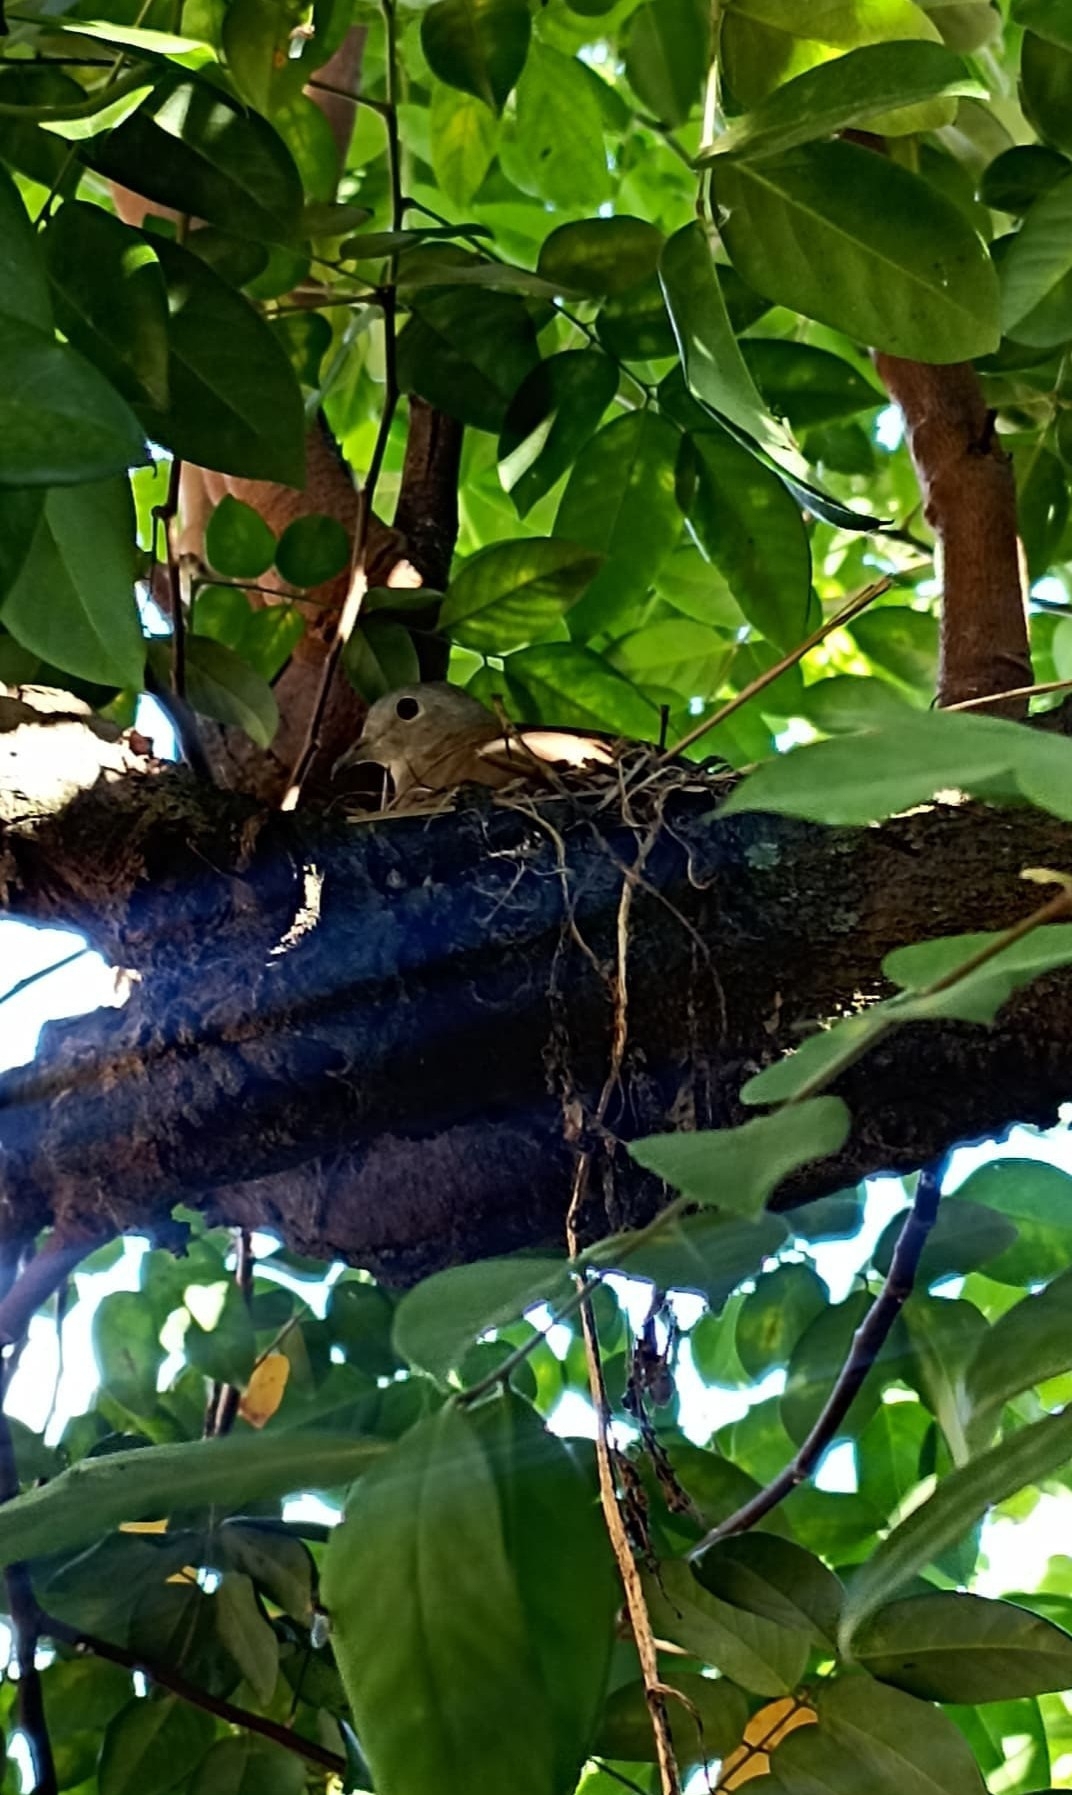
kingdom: Animalia
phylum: Chordata
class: Aves
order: Columbiformes
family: Columbidae
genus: Columbina
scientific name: Columbina talpacoti
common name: Ruddy ground dove
